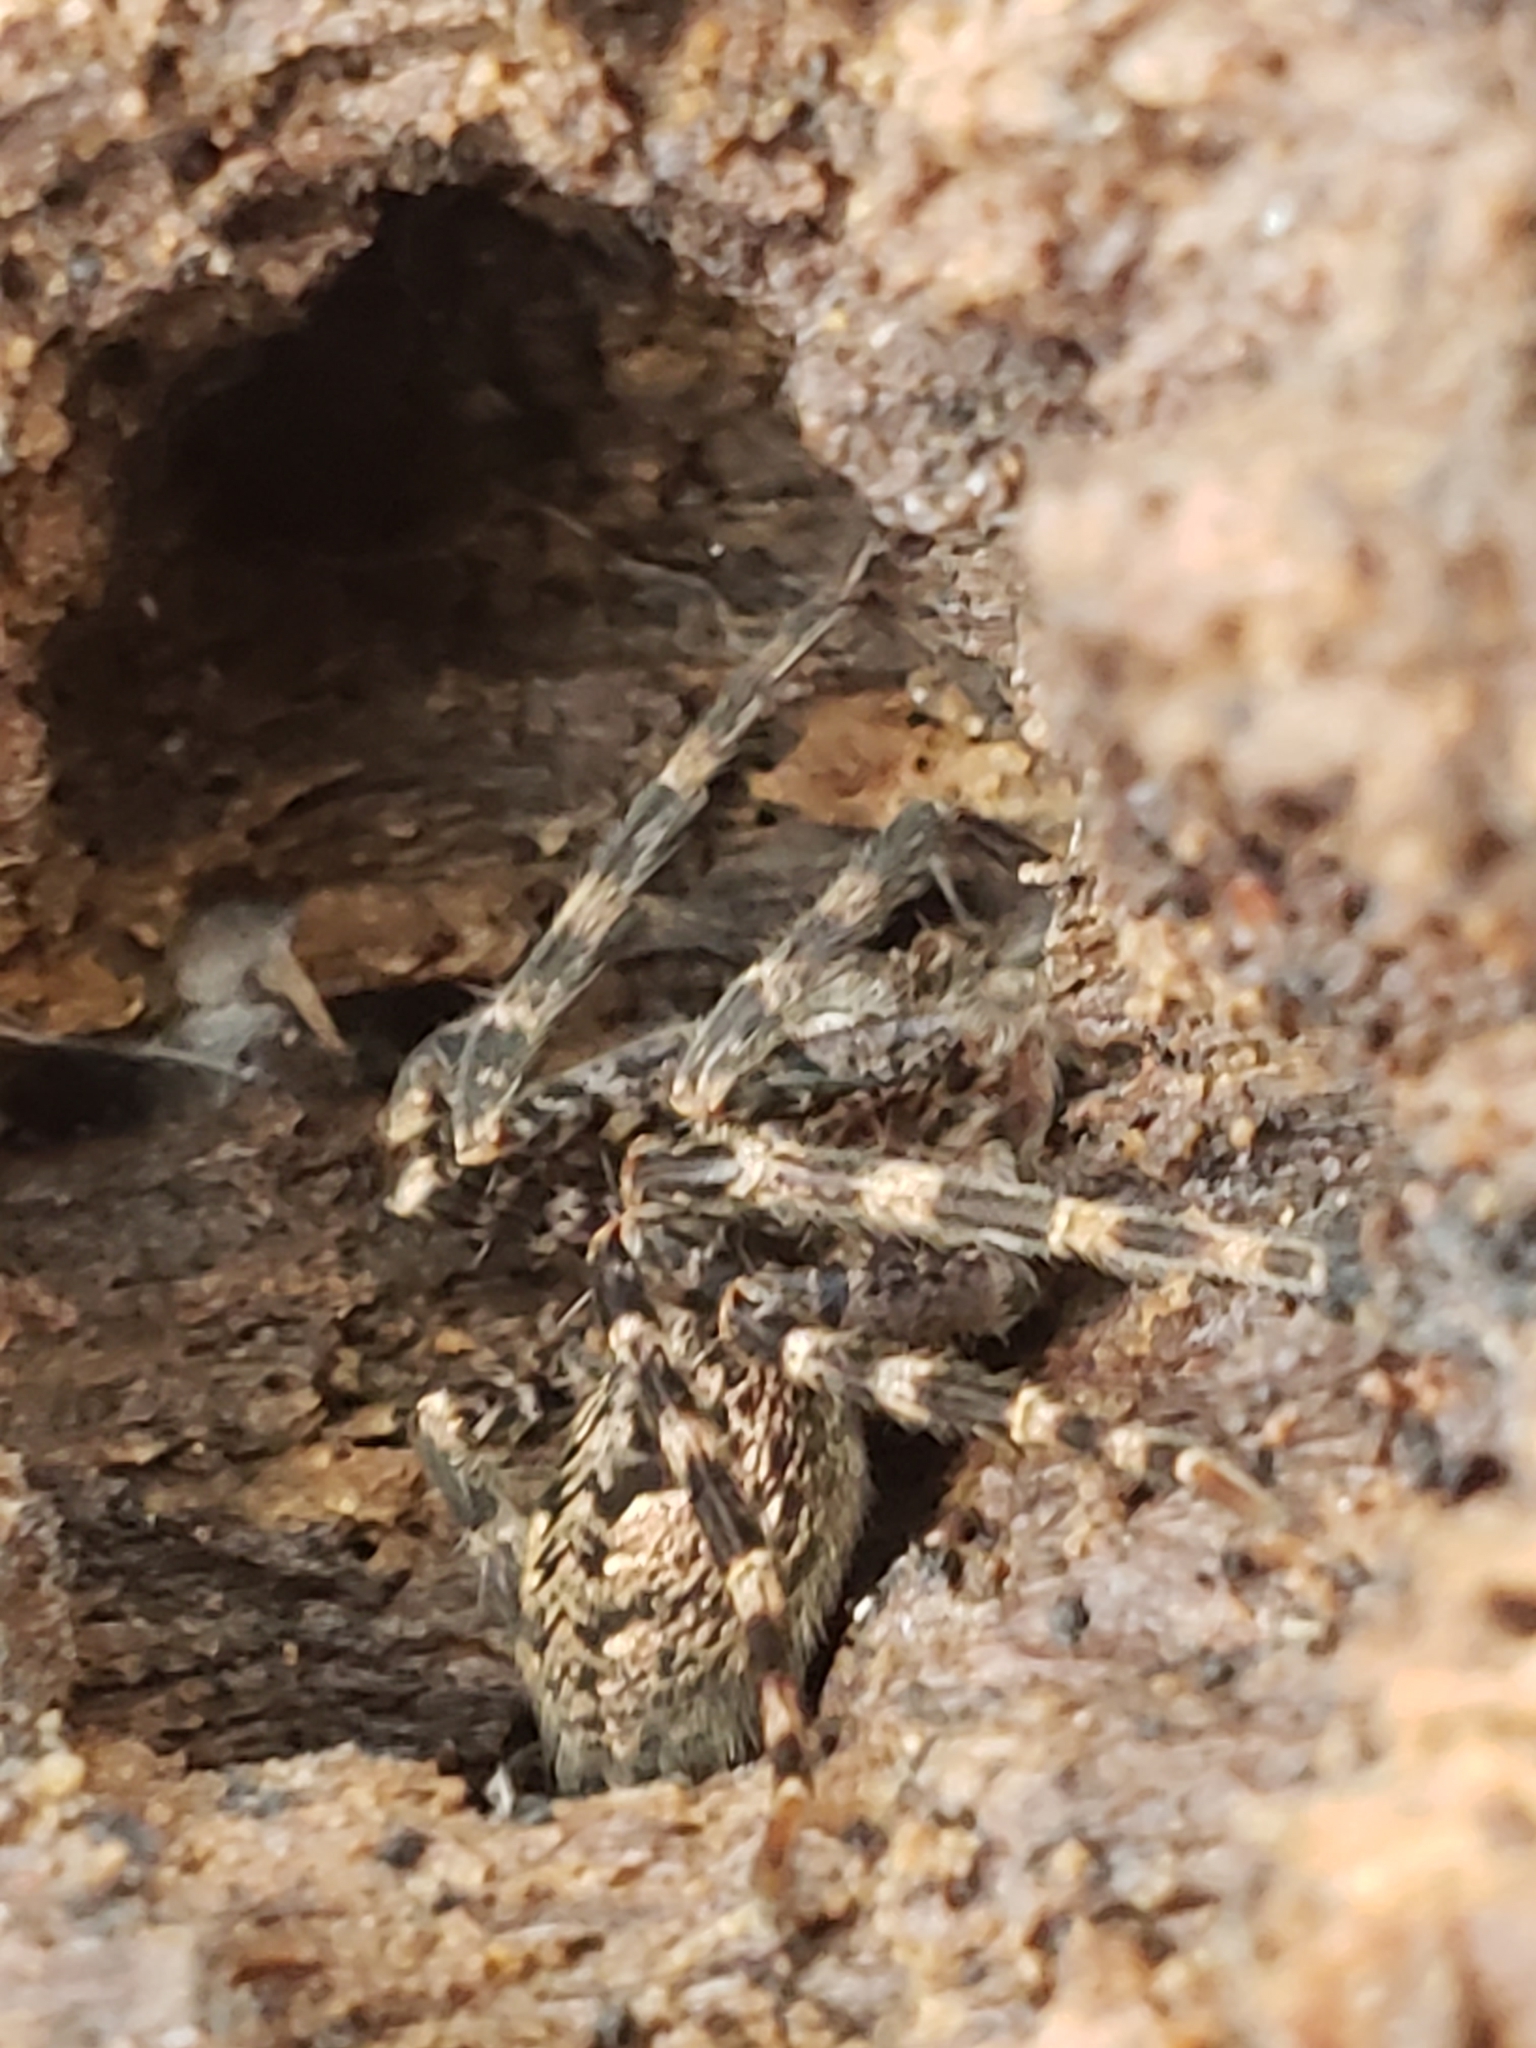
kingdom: Animalia
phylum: Arthropoda
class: Arachnida
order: Araneae
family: Pisauridae
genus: Dolomedes
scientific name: Dolomedes tenebrosus
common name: Dark fishing spider
